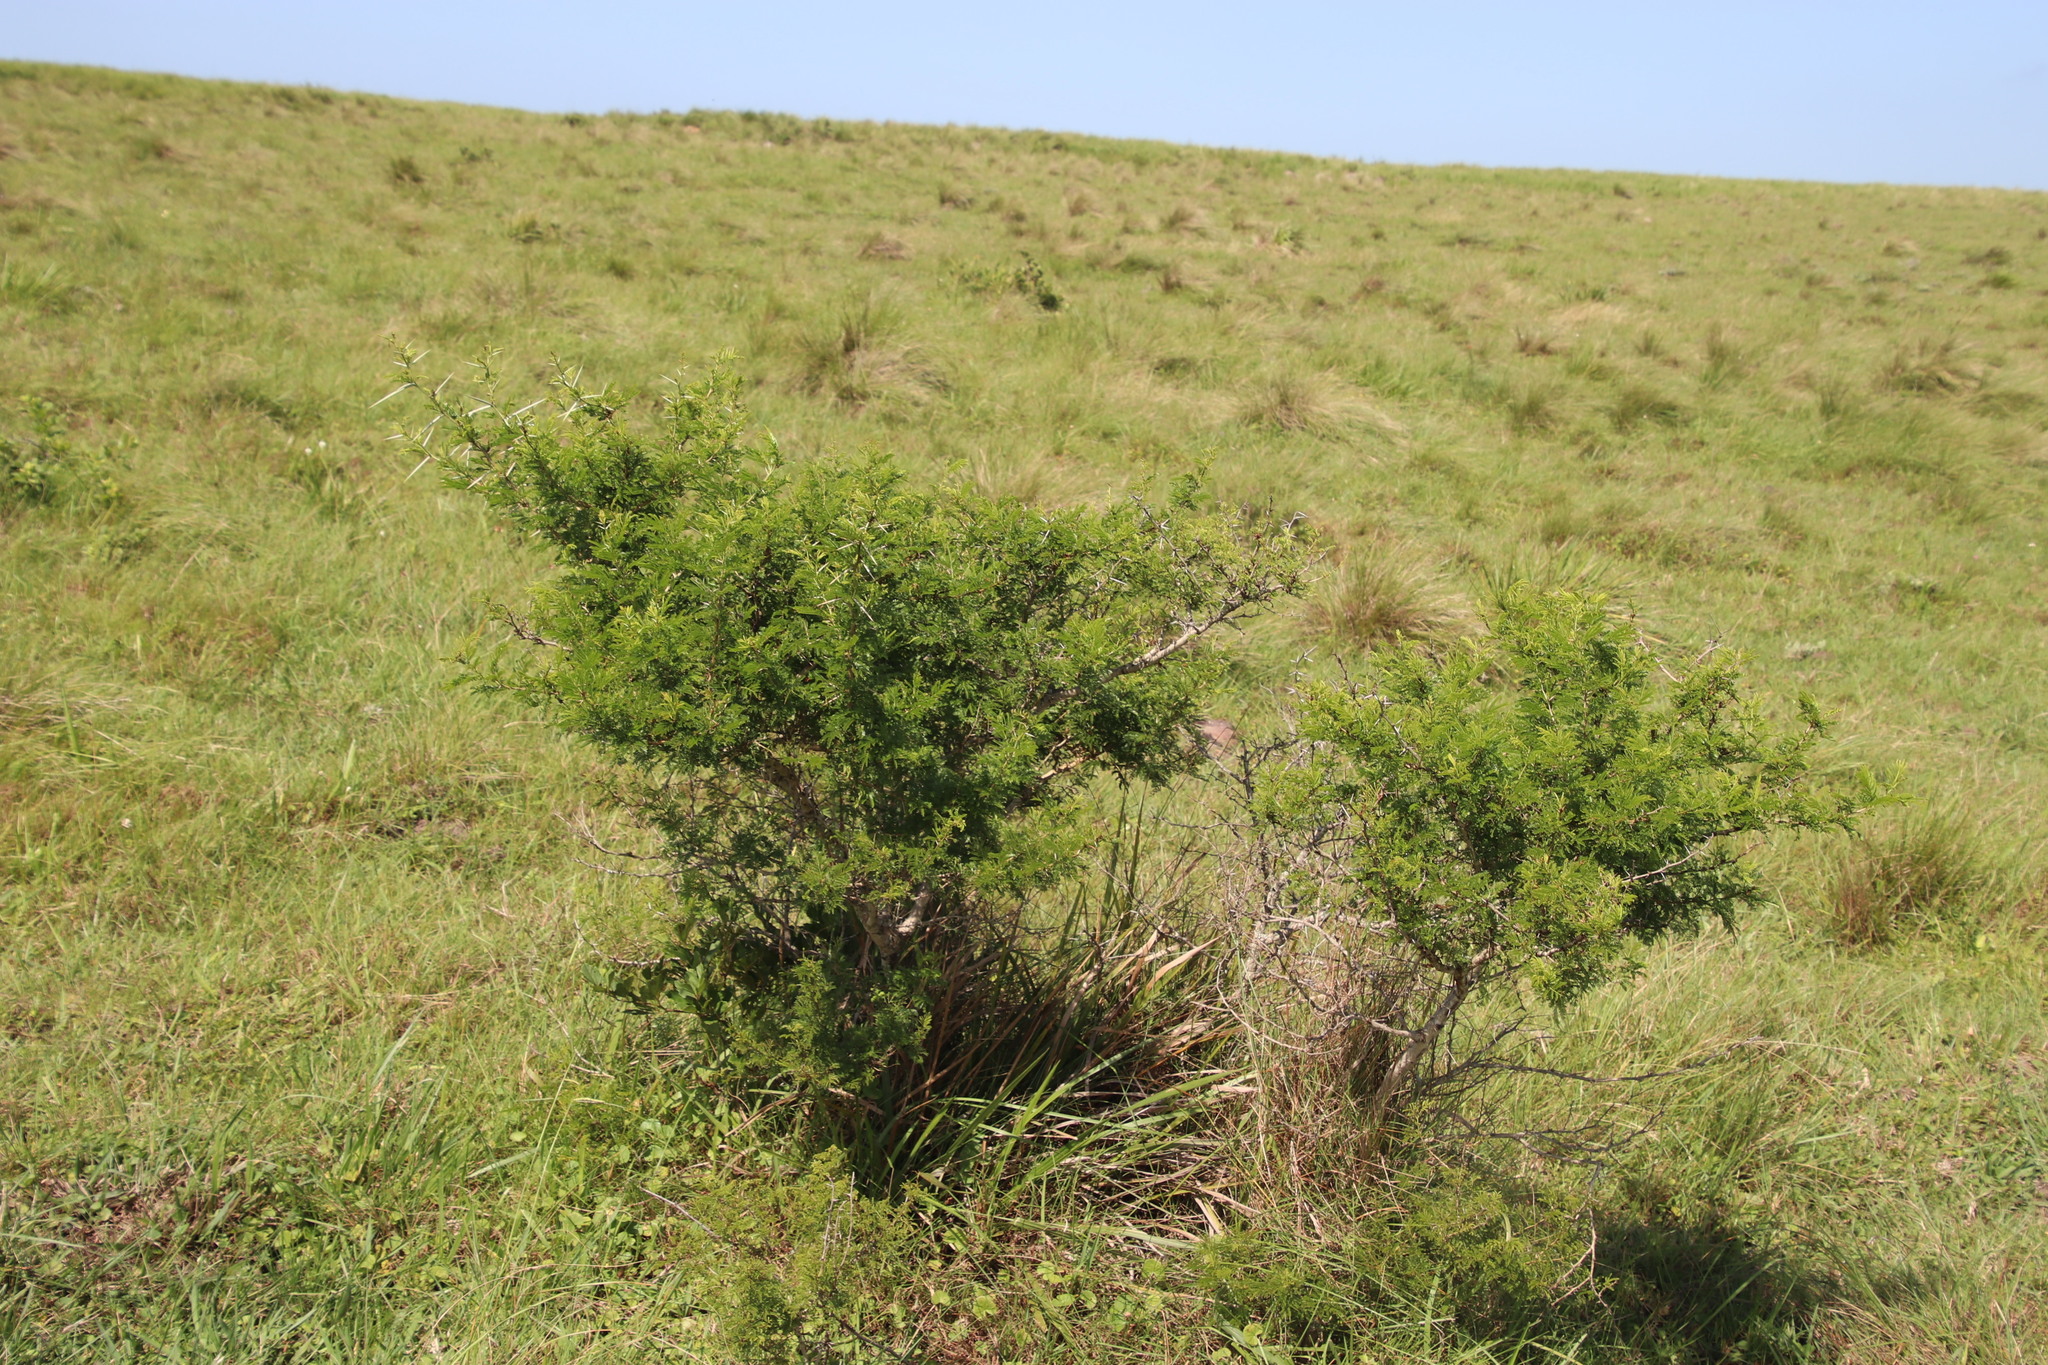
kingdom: Plantae
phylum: Tracheophyta
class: Magnoliopsida
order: Fabales
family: Fabaceae
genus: Vachellia
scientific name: Vachellia karroo
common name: Sweet thorn
